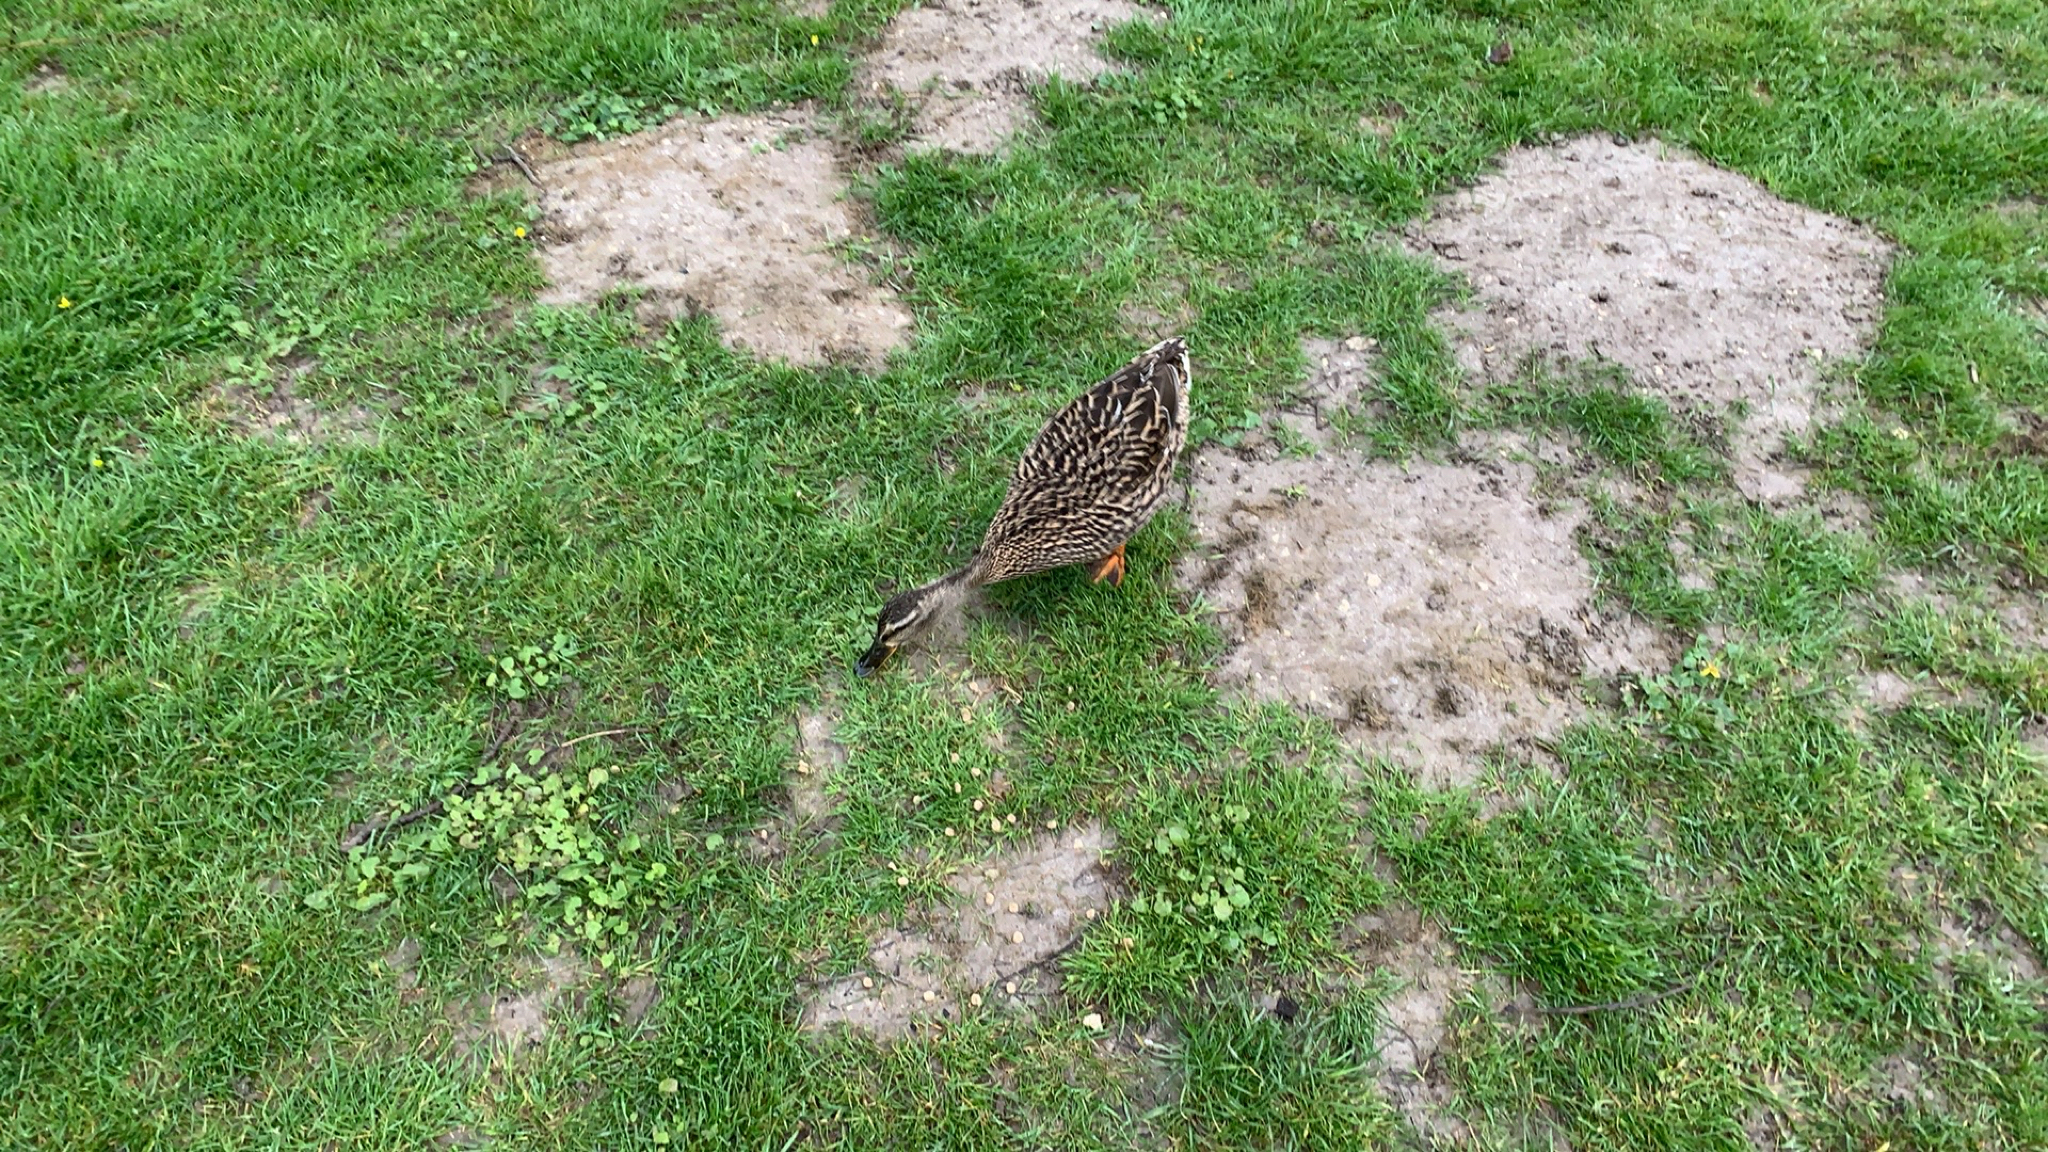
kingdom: Animalia
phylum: Chordata
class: Aves
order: Anseriformes
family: Anatidae
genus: Anas
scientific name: Anas platyrhynchos
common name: Mallard
